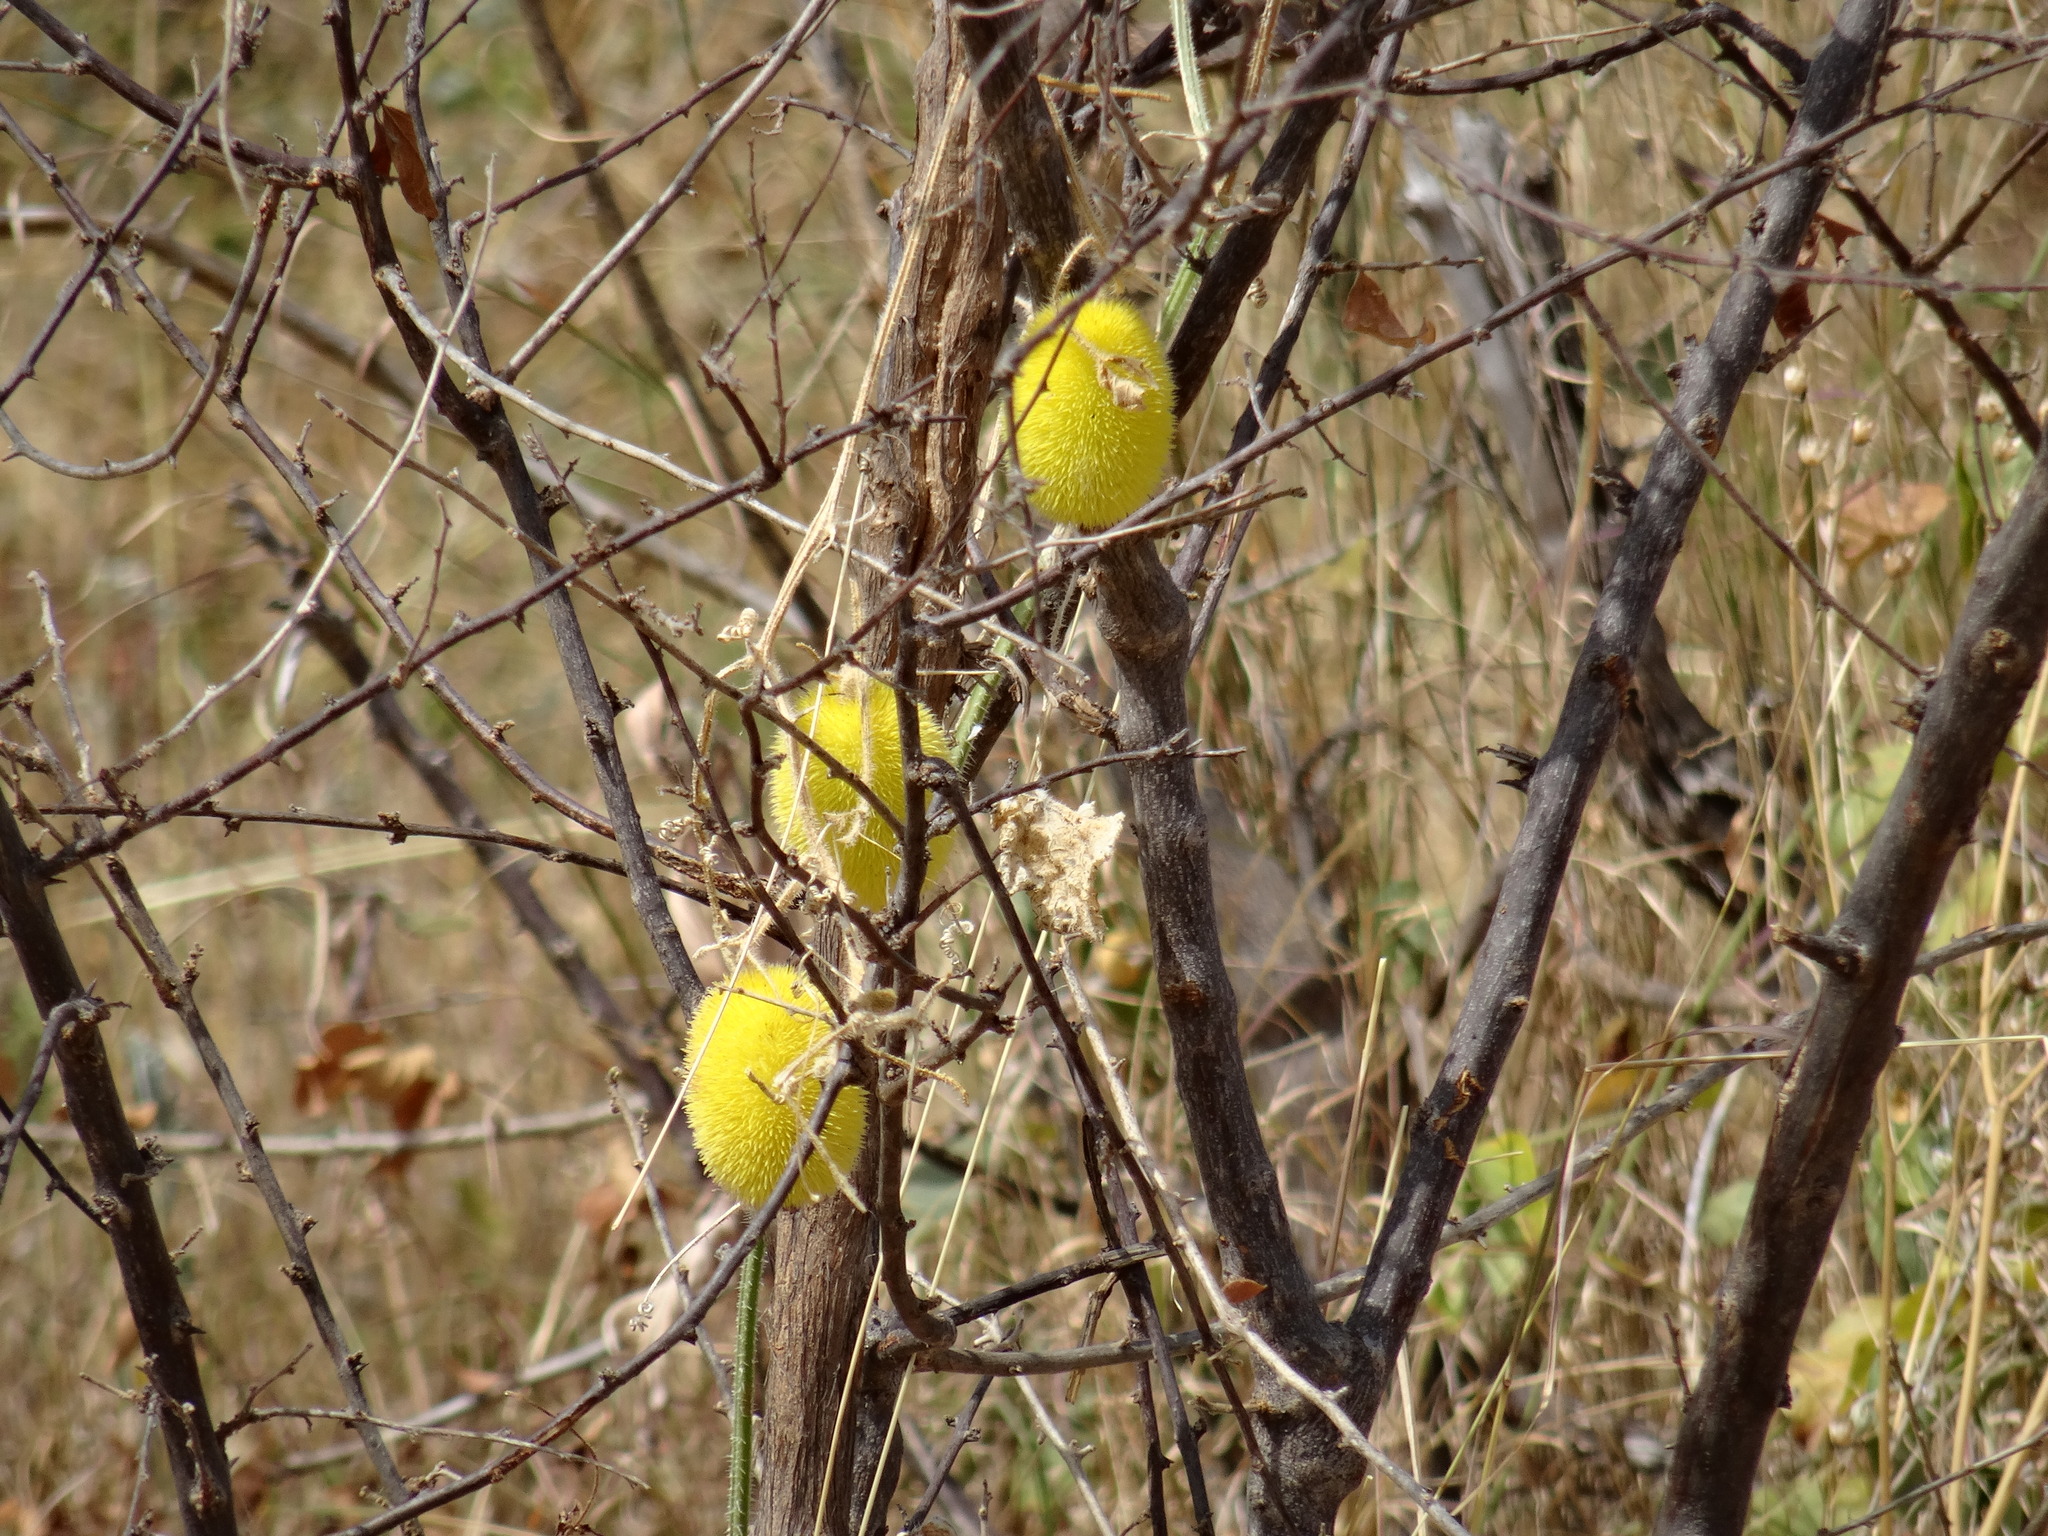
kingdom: Plantae
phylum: Tracheophyta
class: Magnoliopsida
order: Cucurbitales
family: Cucurbitaceae
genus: Cucumis
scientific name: Cucumis dipsaceus
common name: Hedgehog gourd
